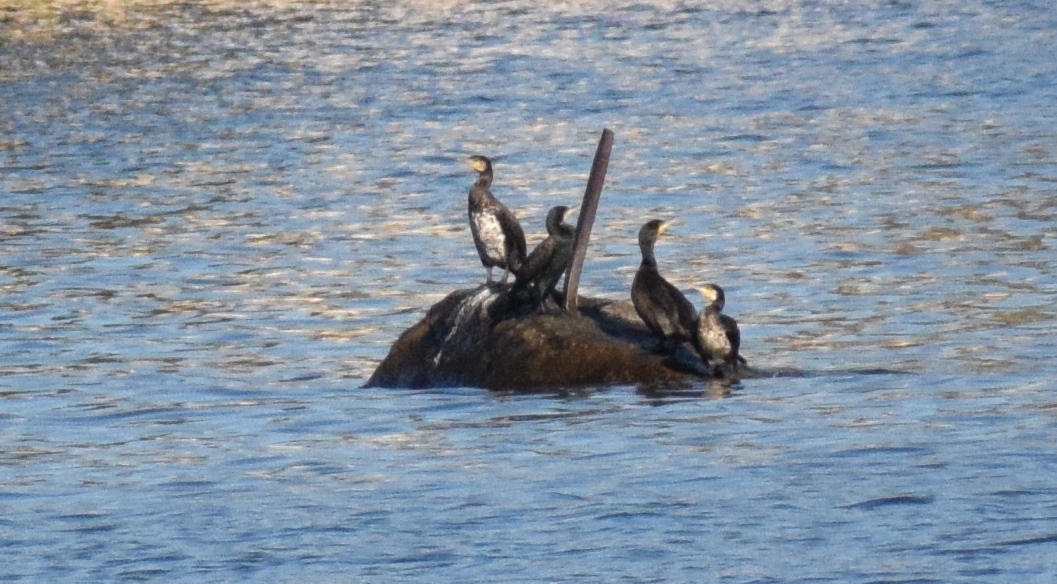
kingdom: Animalia
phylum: Chordata
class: Aves
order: Suliformes
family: Phalacrocoracidae
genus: Phalacrocorax
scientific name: Phalacrocorax carbo
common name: Great cormorant
